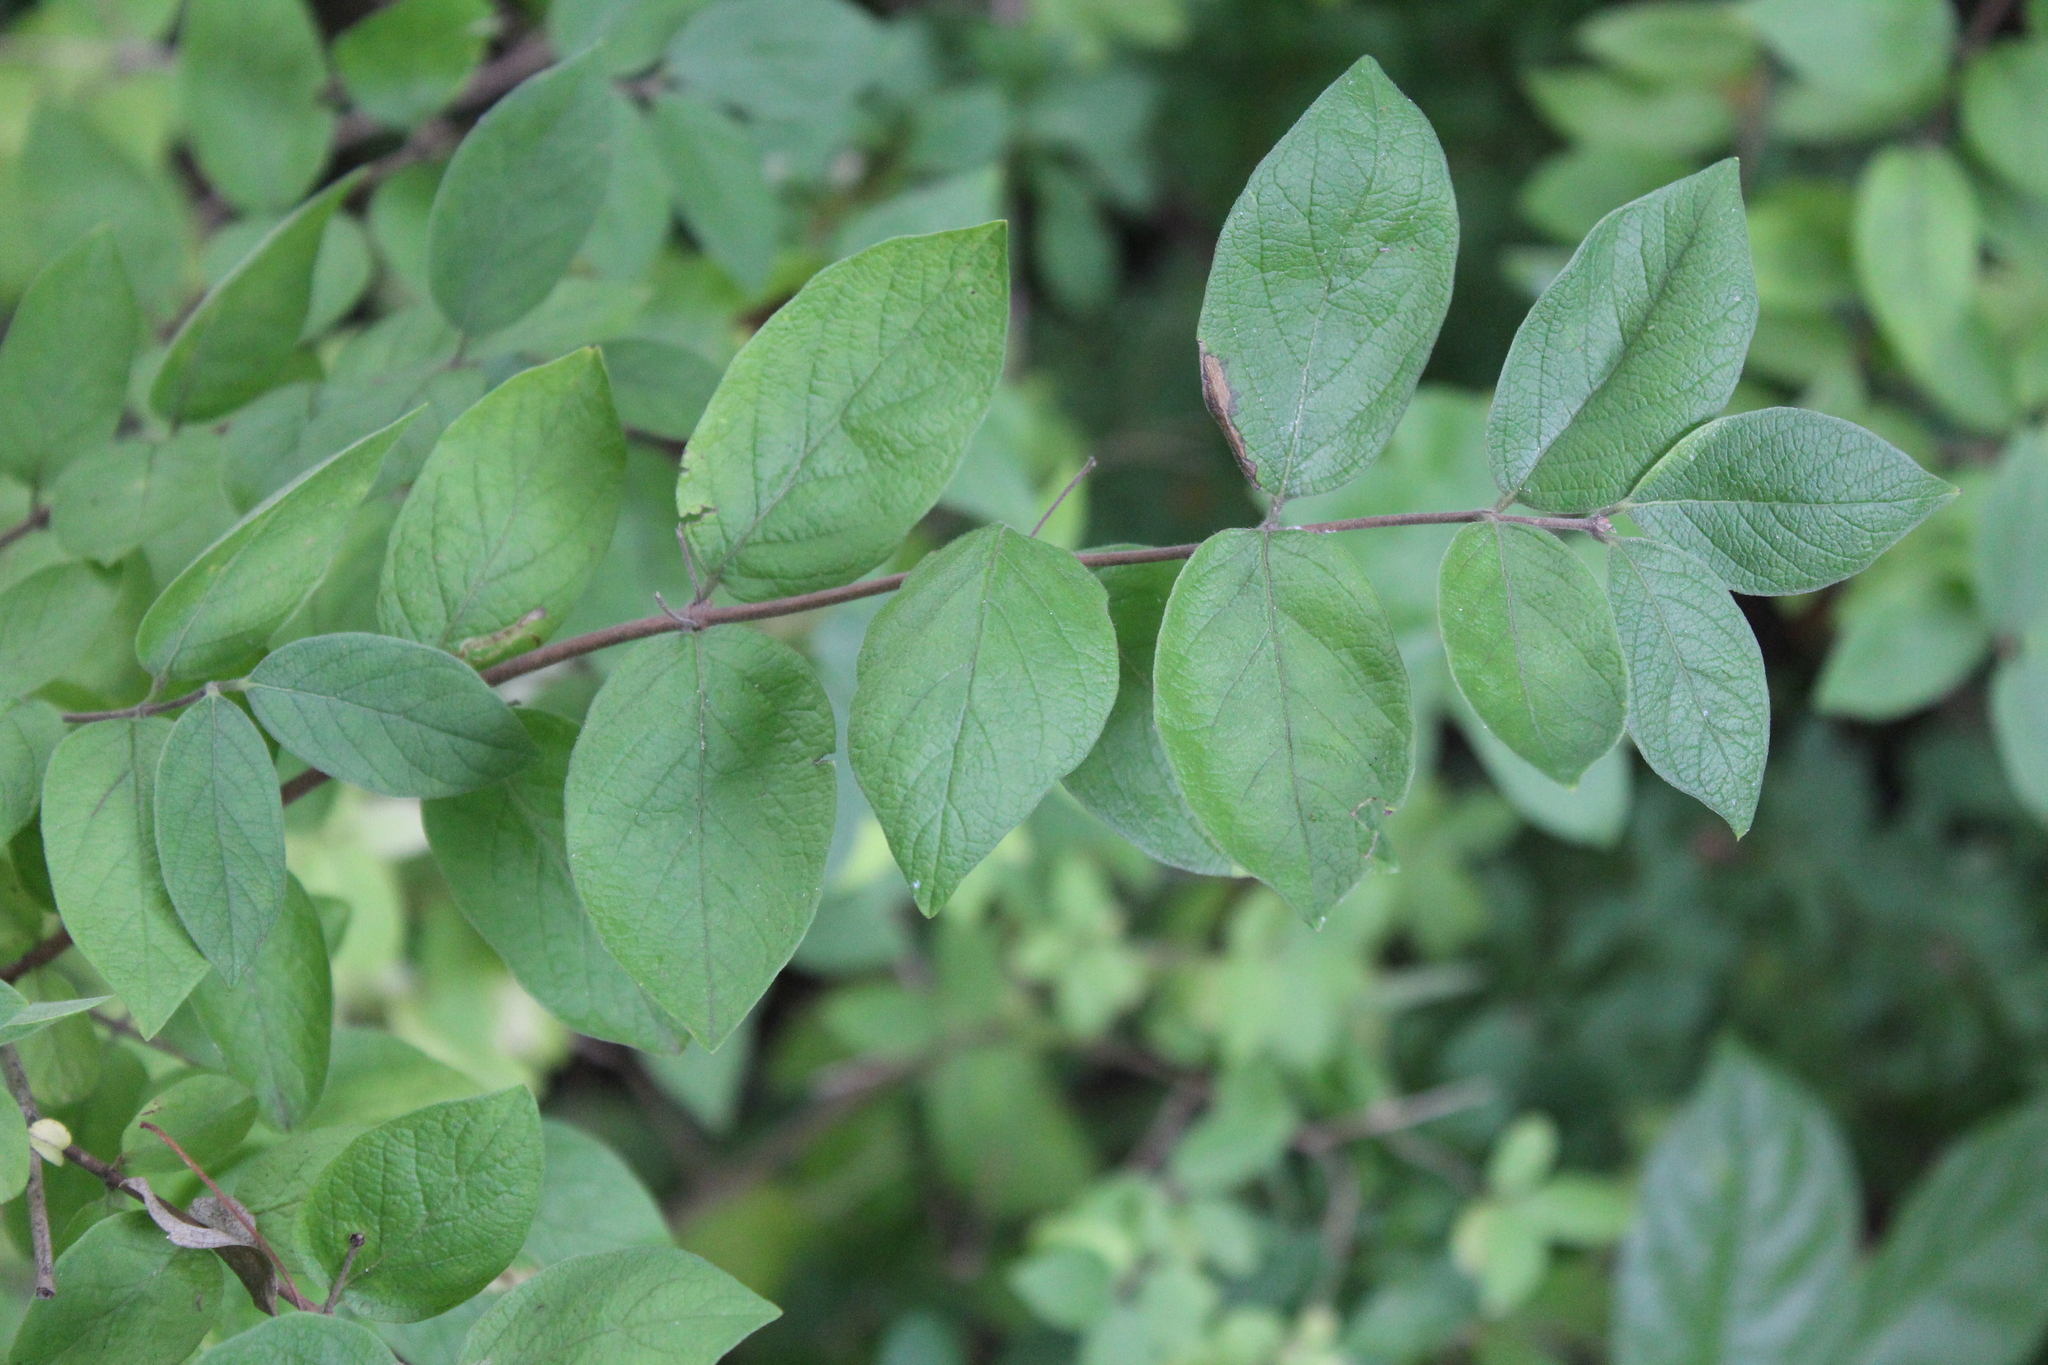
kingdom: Plantae
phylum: Tracheophyta
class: Magnoliopsida
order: Dipsacales
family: Caprifoliaceae
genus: Lonicera
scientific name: Lonicera morrowii
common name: Morrow's honeysuckle
